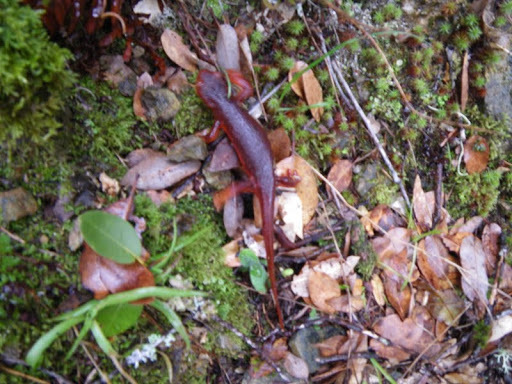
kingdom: Animalia
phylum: Chordata
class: Amphibia
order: Caudata
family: Salamandridae
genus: Taricha
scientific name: Taricha sierrae
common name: Sierra newt
